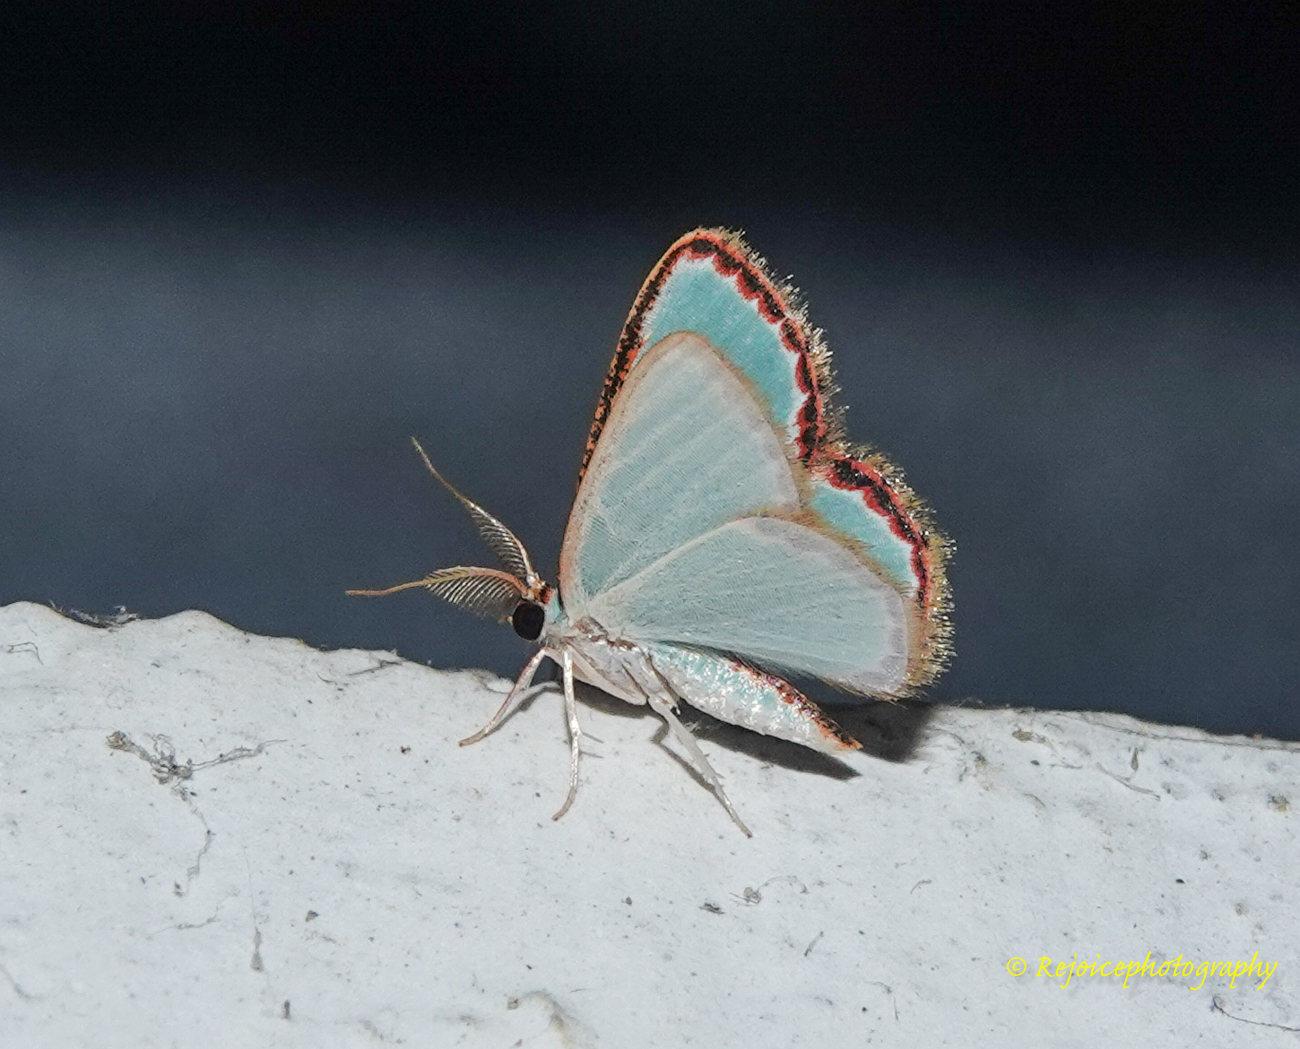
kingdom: Animalia
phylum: Arthropoda
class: Insecta
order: Lepidoptera
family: Geometridae
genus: Comostola
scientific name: Comostola pyrrhogona
